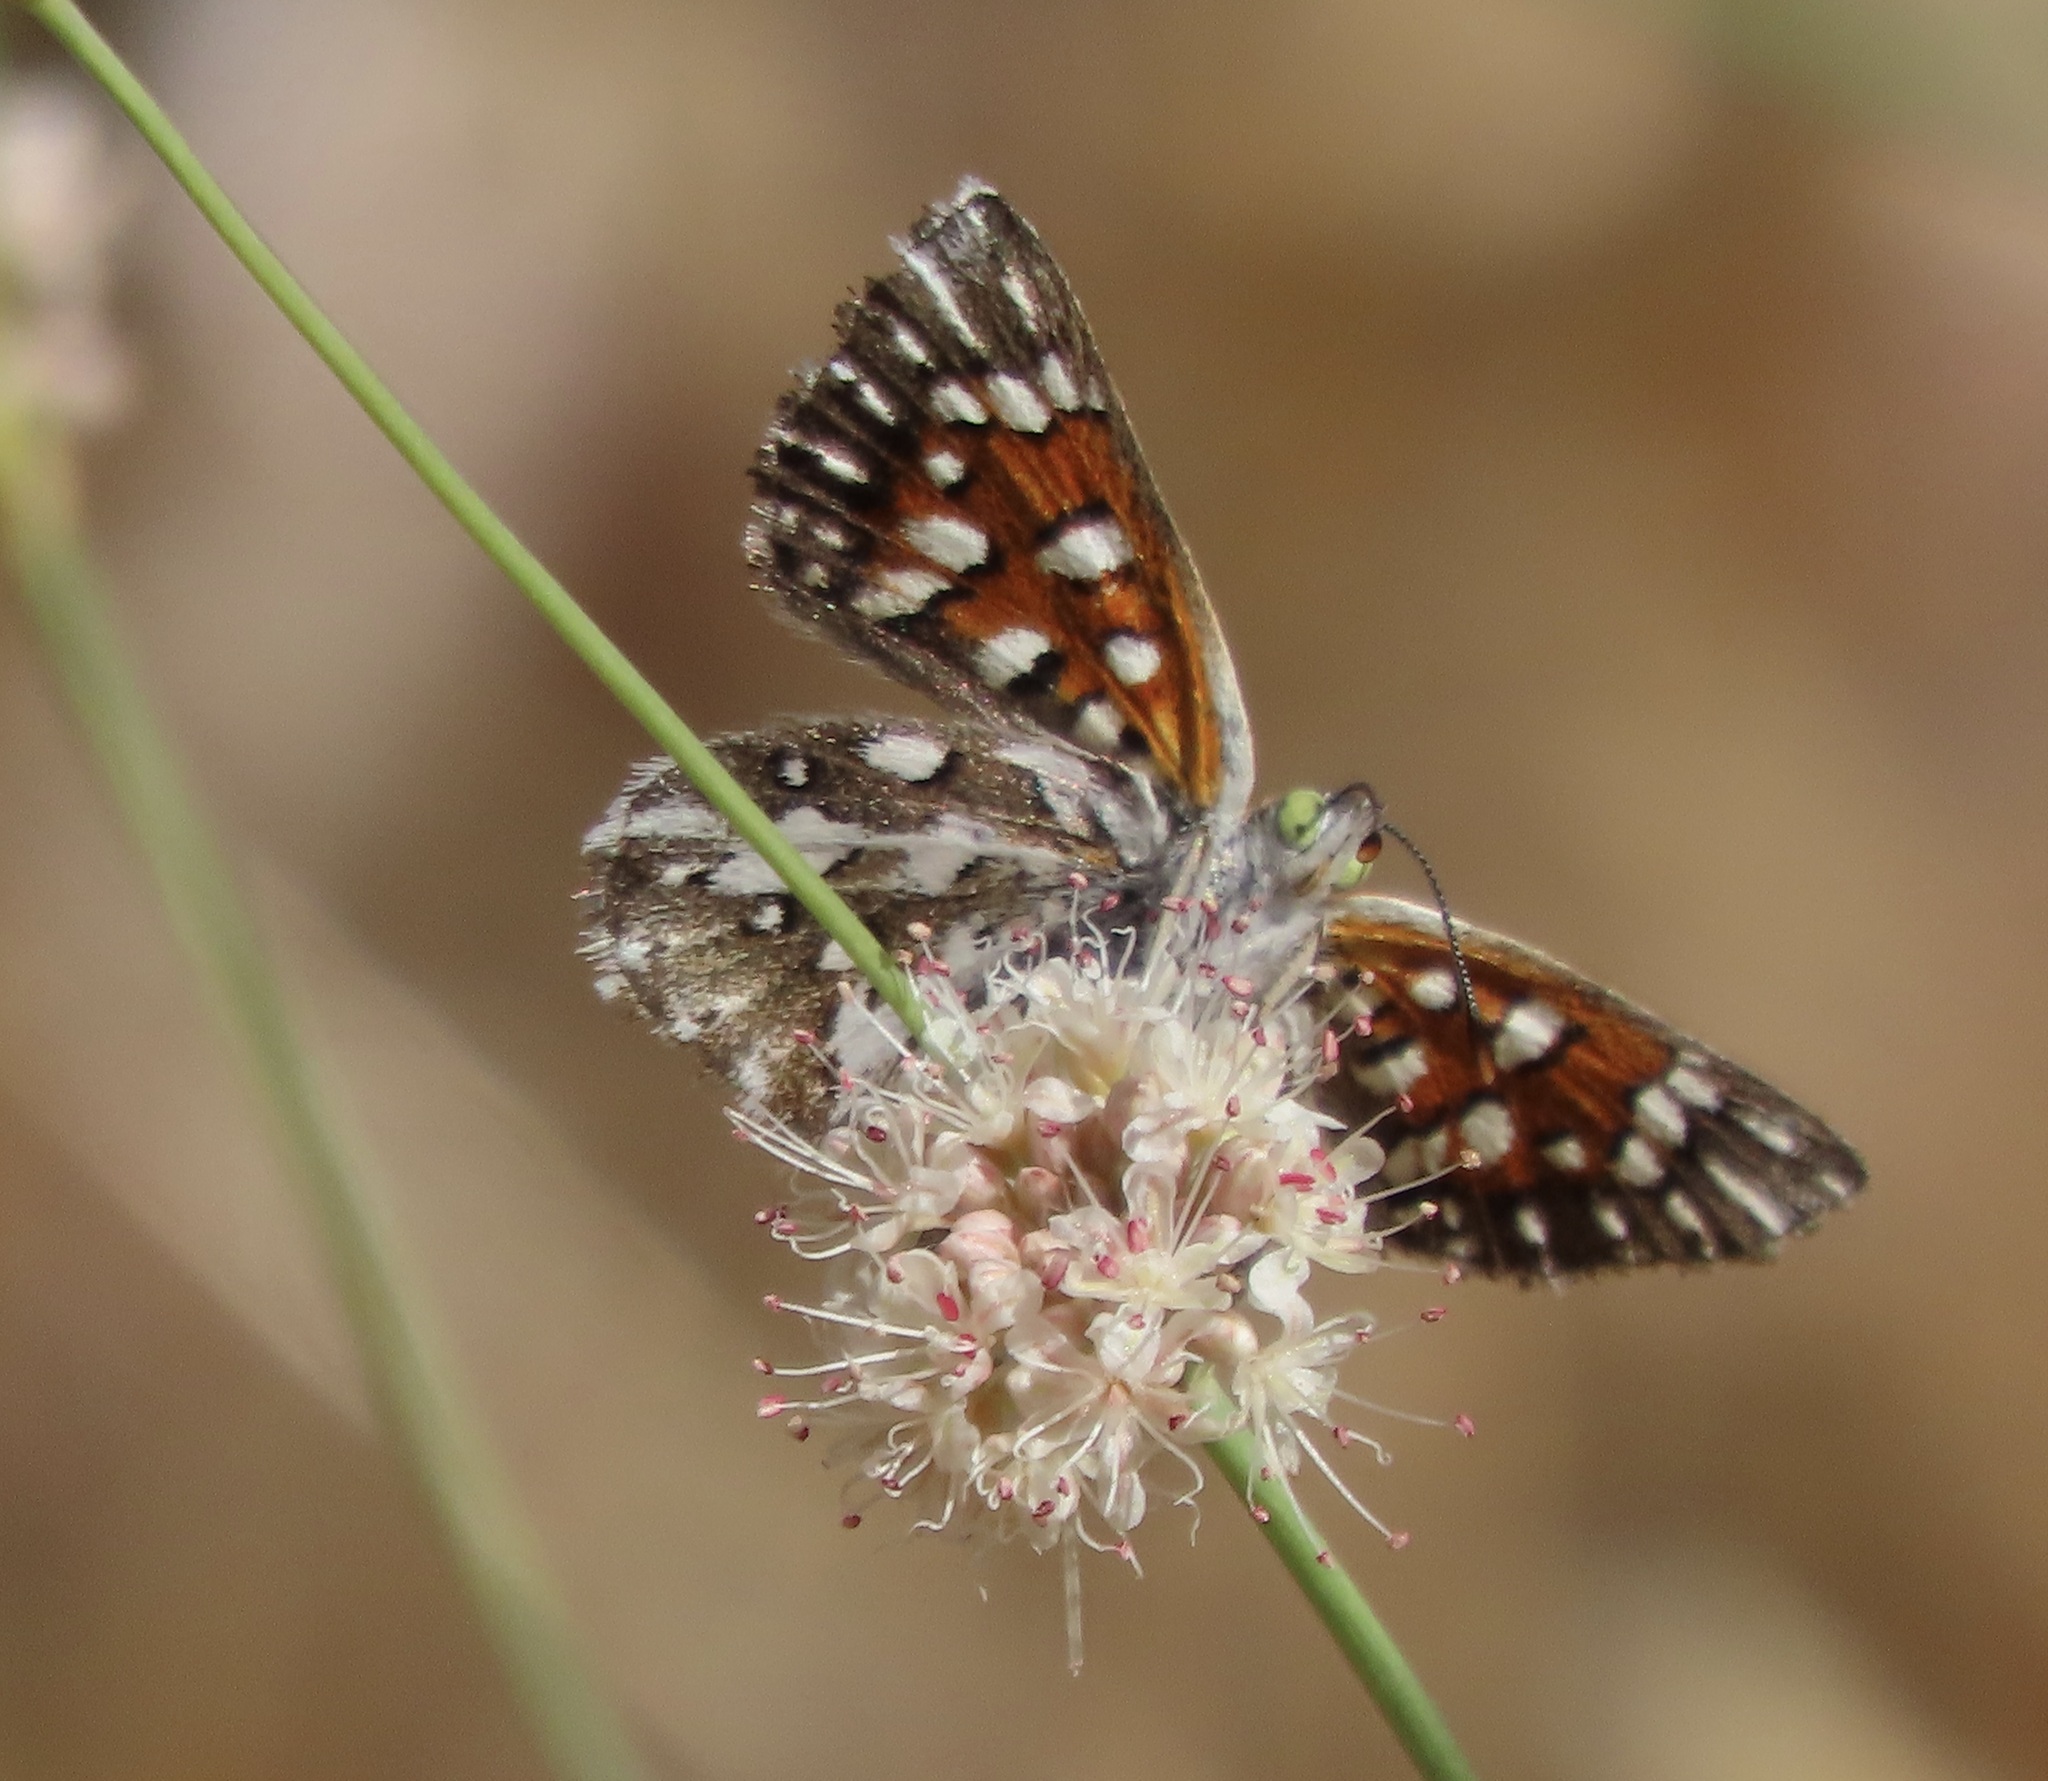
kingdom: Animalia
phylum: Arthropoda
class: Insecta
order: Lepidoptera
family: Riodinidae
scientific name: Riodinidae
